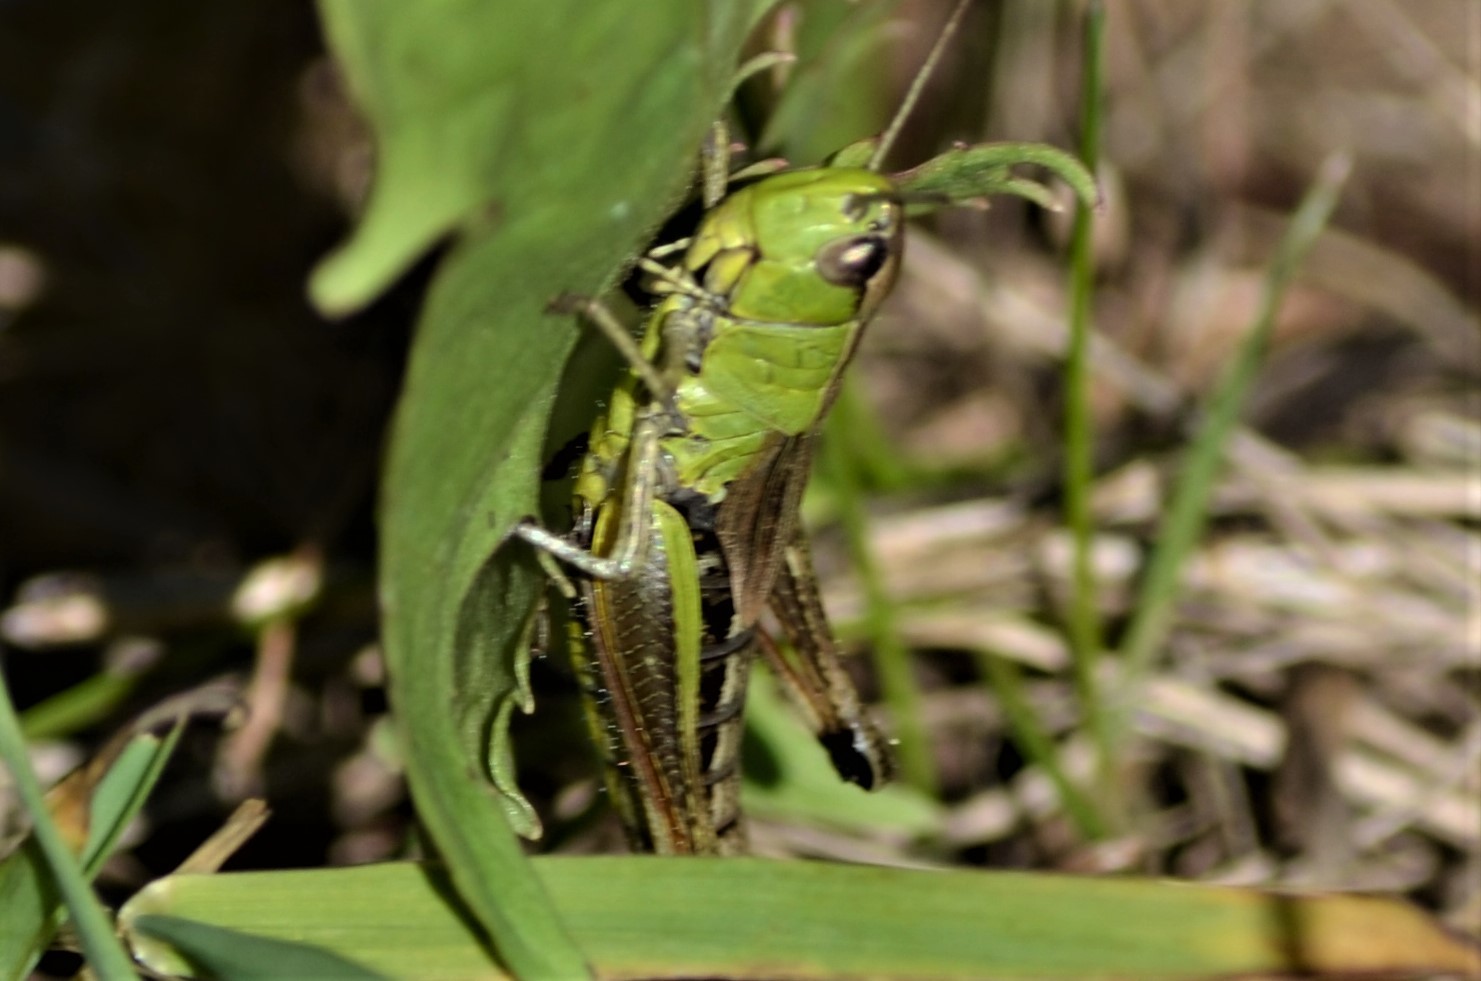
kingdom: Animalia
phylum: Arthropoda
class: Insecta
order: Orthoptera
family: Acrididae
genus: Pseudochorthippus
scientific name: Pseudochorthippus parallelus
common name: Meadow grasshopper
